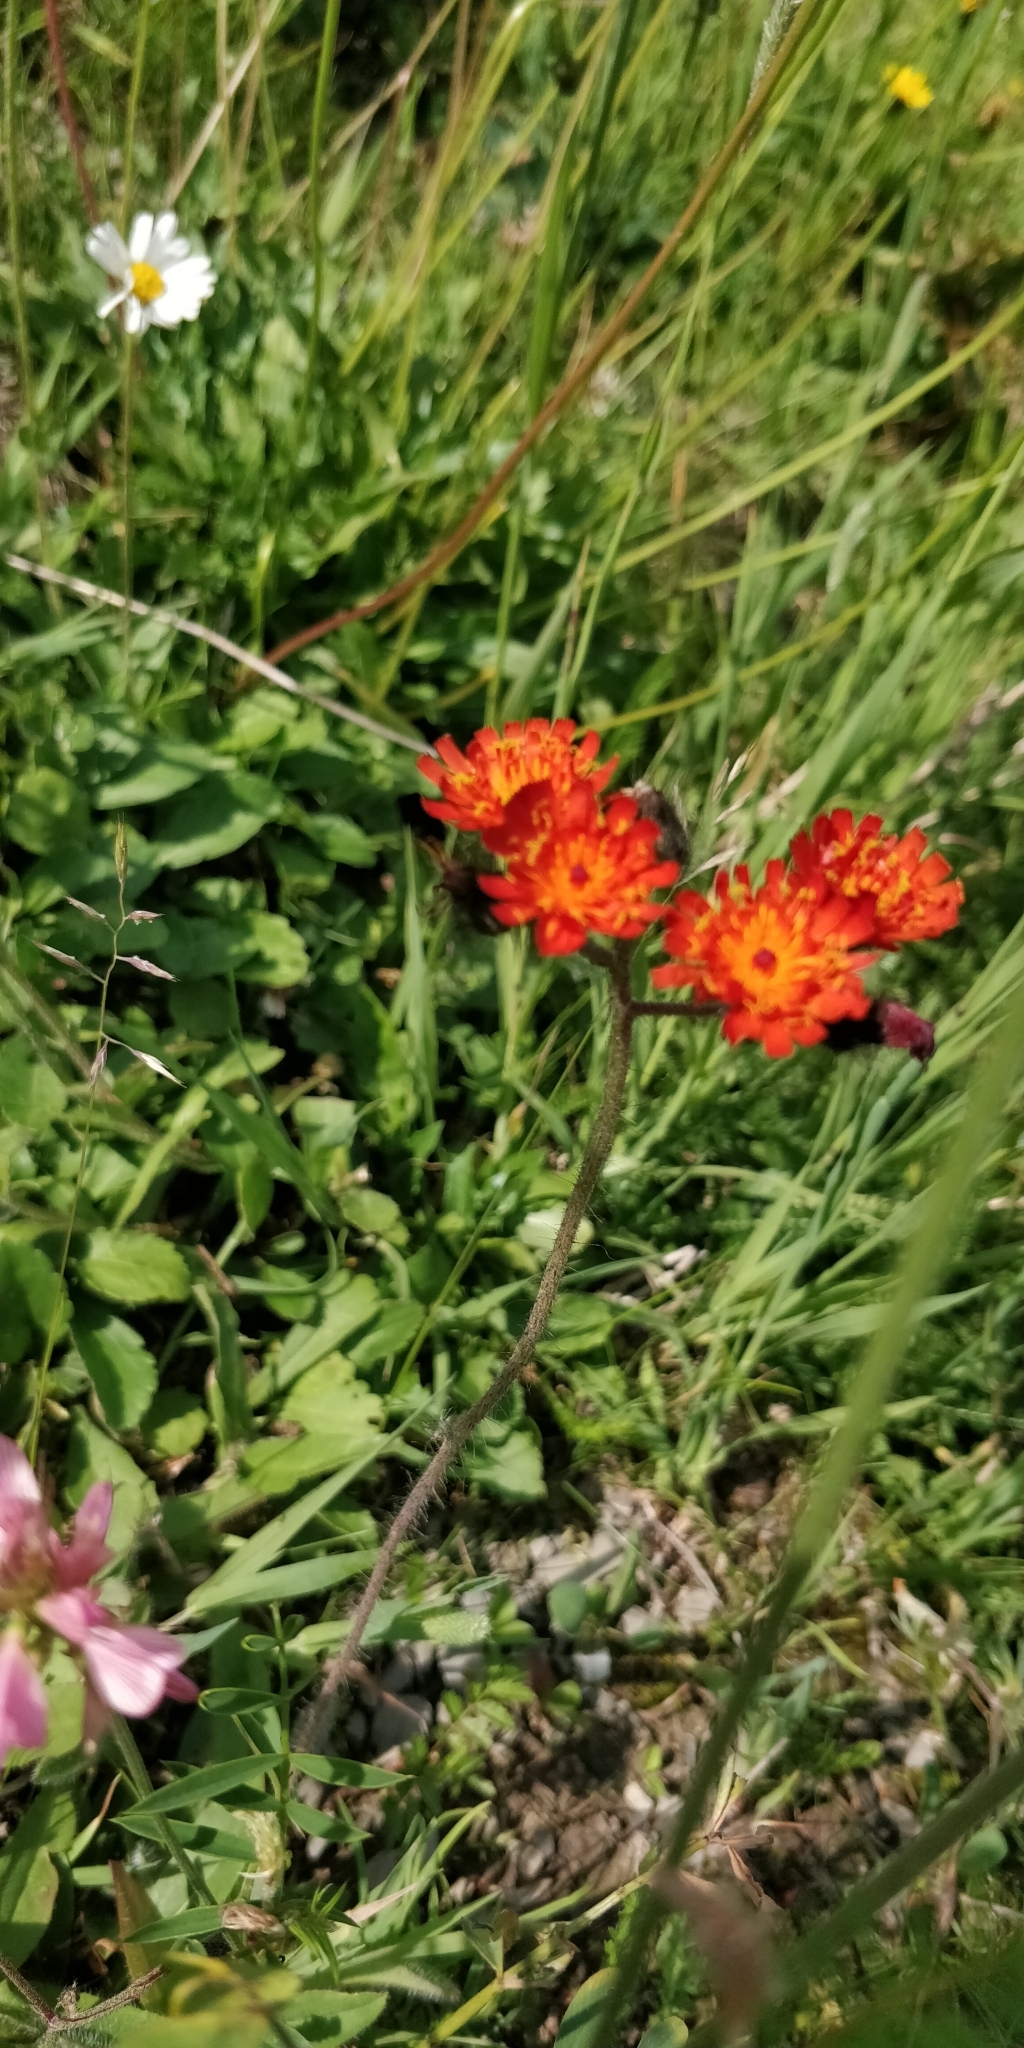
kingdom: Plantae
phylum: Tracheophyta
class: Magnoliopsida
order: Asterales
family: Asteraceae
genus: Pilosella
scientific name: Pilosella aurantiaca
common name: Fox-and-cubs
